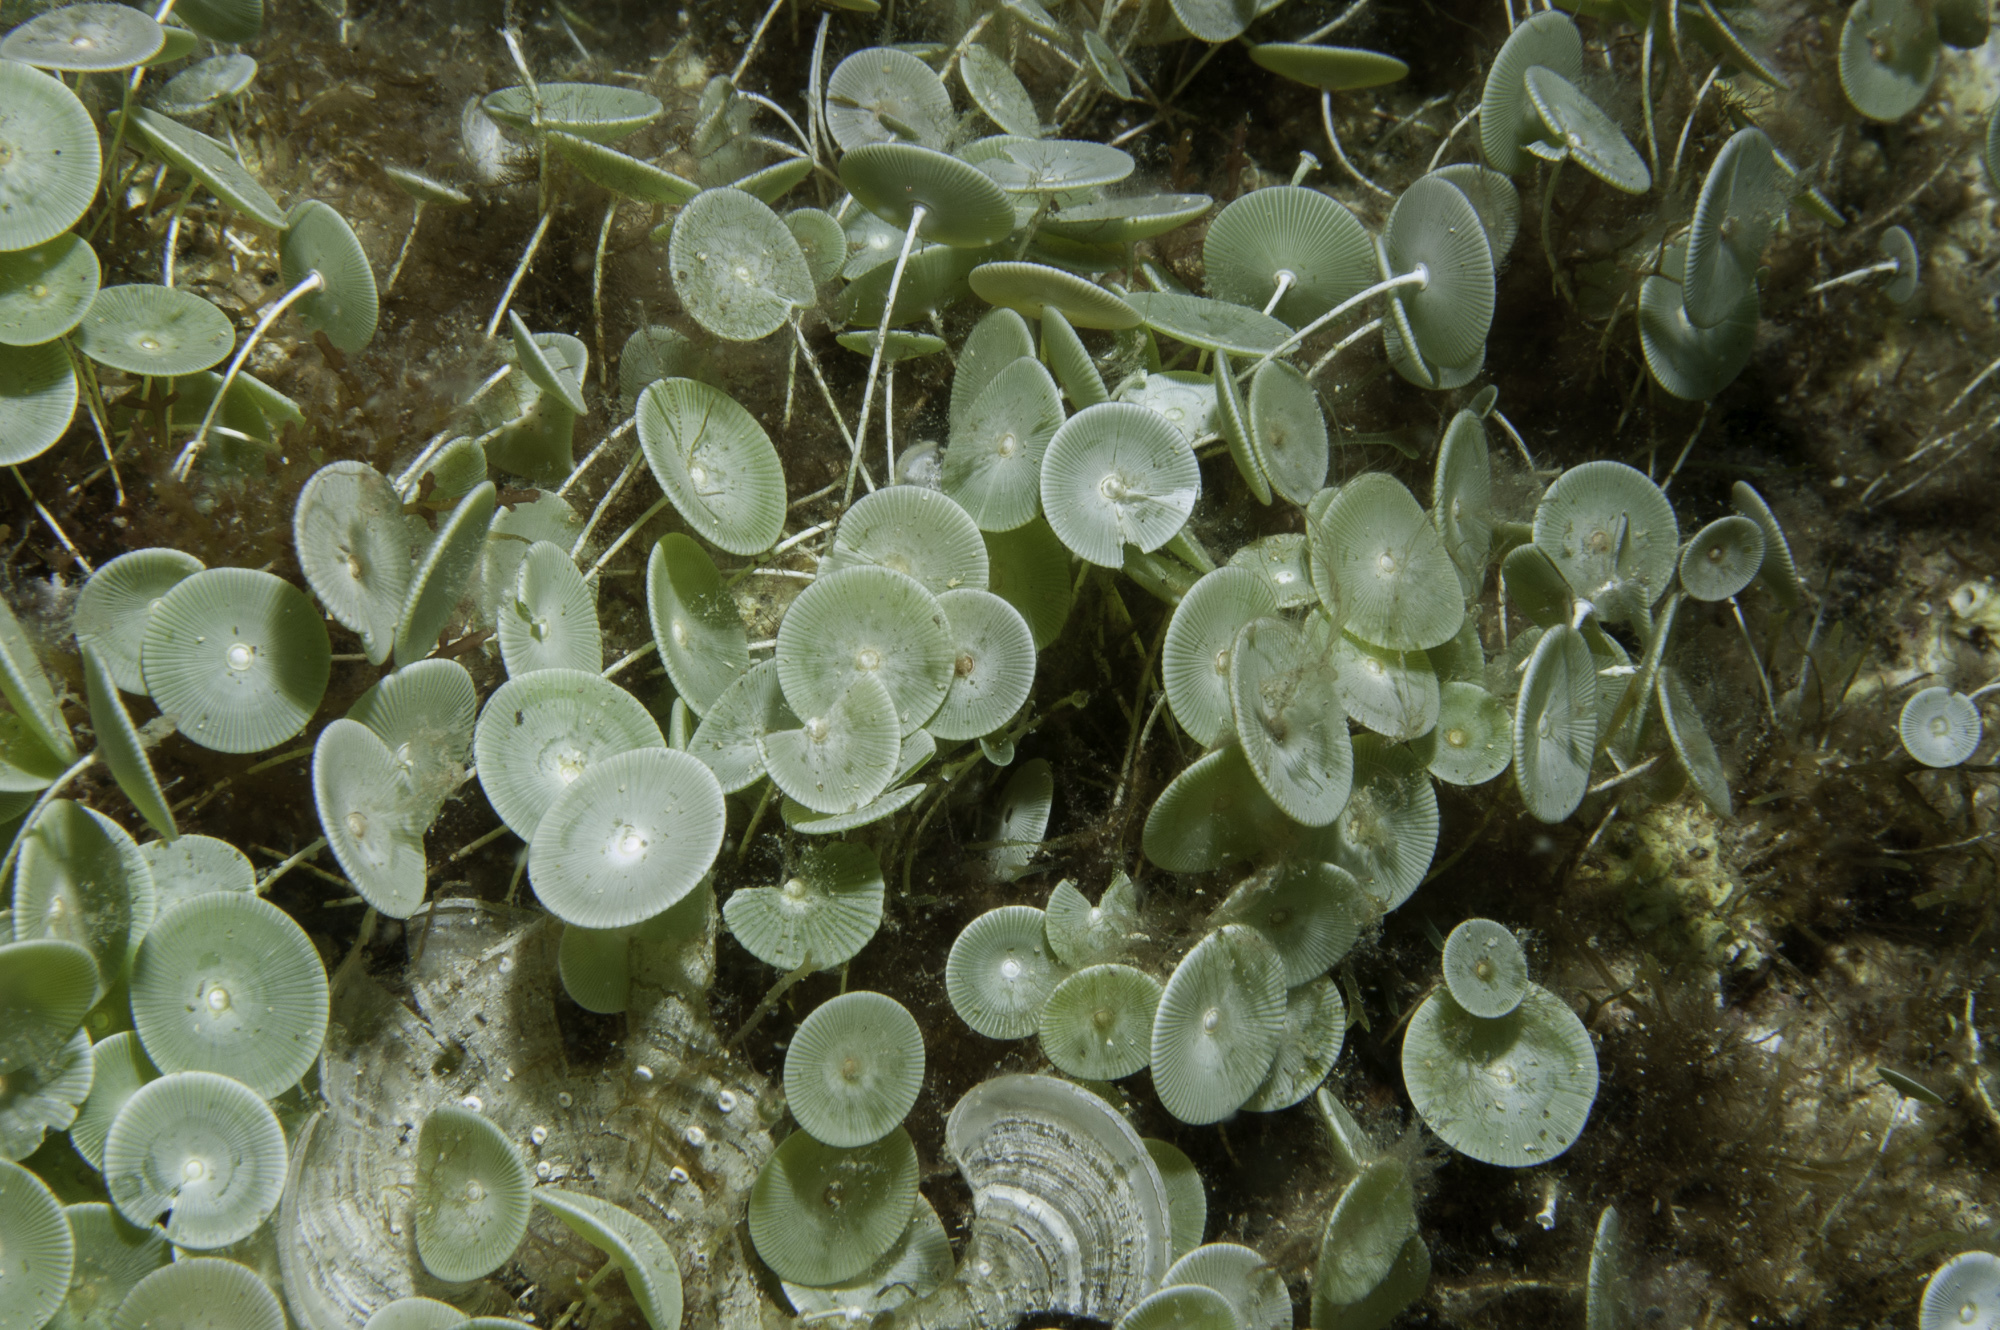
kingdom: Plantae
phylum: Chlorophyta
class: Ulvophyceae
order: Dasycladales
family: Polyphysaceae
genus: Acetabularia
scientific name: Acetabularia acetabulum
